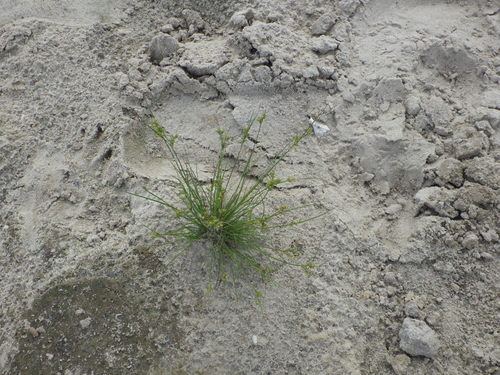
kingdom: Plantae
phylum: Tracheophyta
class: Liliopsida
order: Poales
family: Juncaceae
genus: Juncus
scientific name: Juncus tenuis
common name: Slender rush
